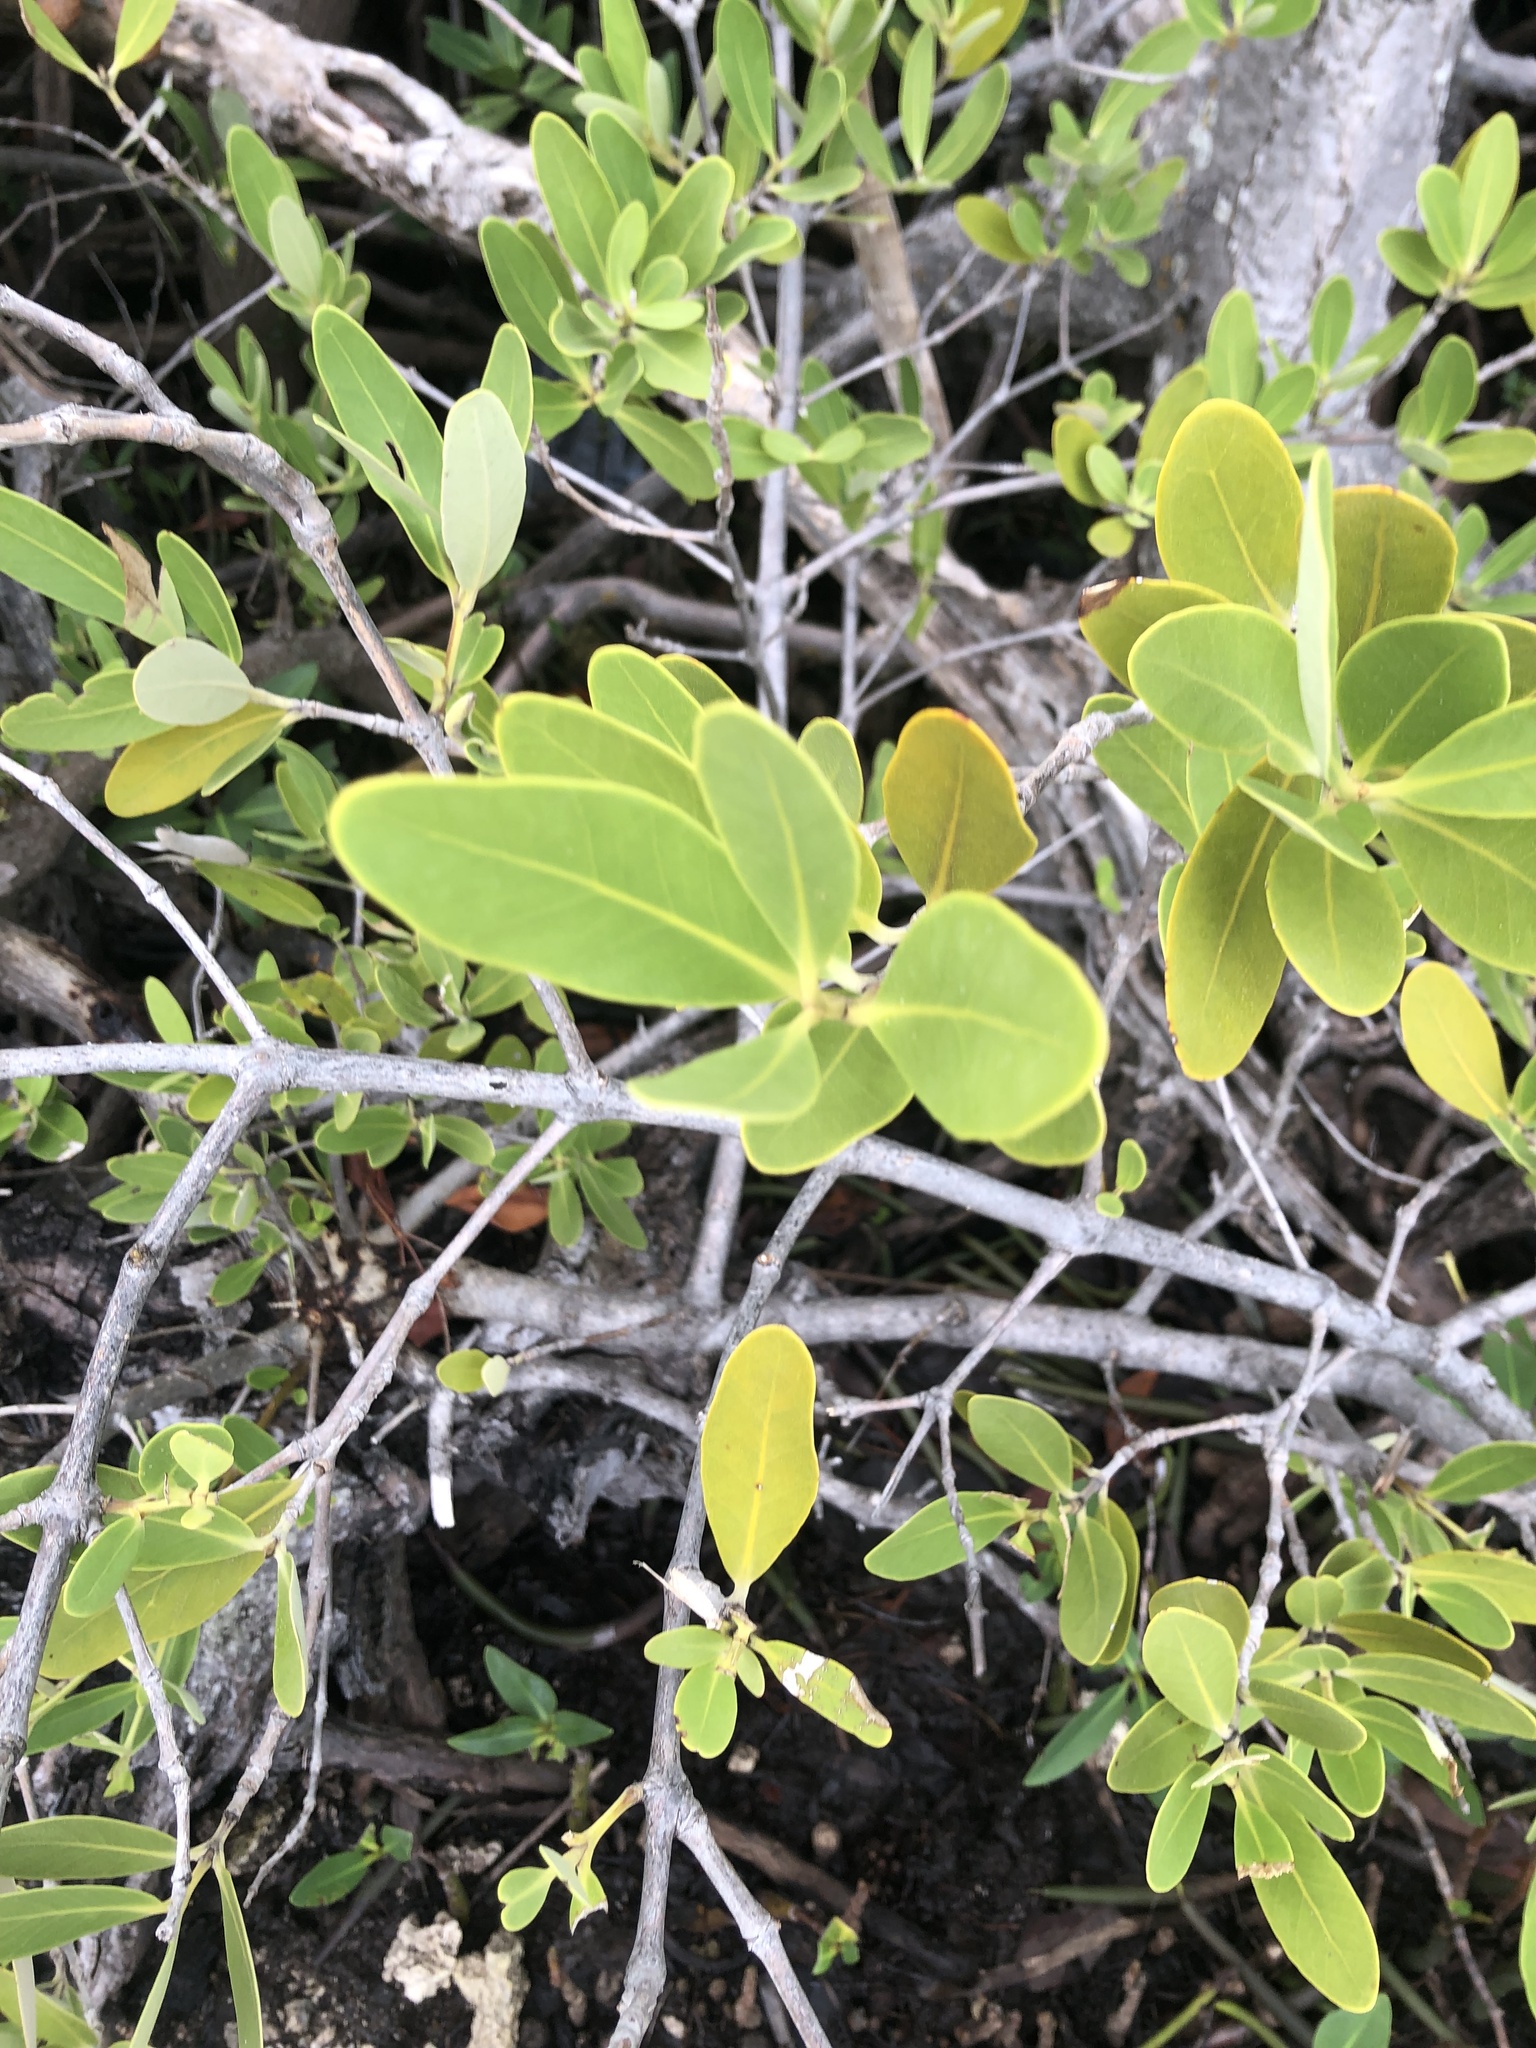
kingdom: Plantae
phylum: Tracheophyta
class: Magnoliopsida
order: Lamiales
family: Acanthaceae
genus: Avicennia
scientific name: Avicennia germinans
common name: Black mangrove
